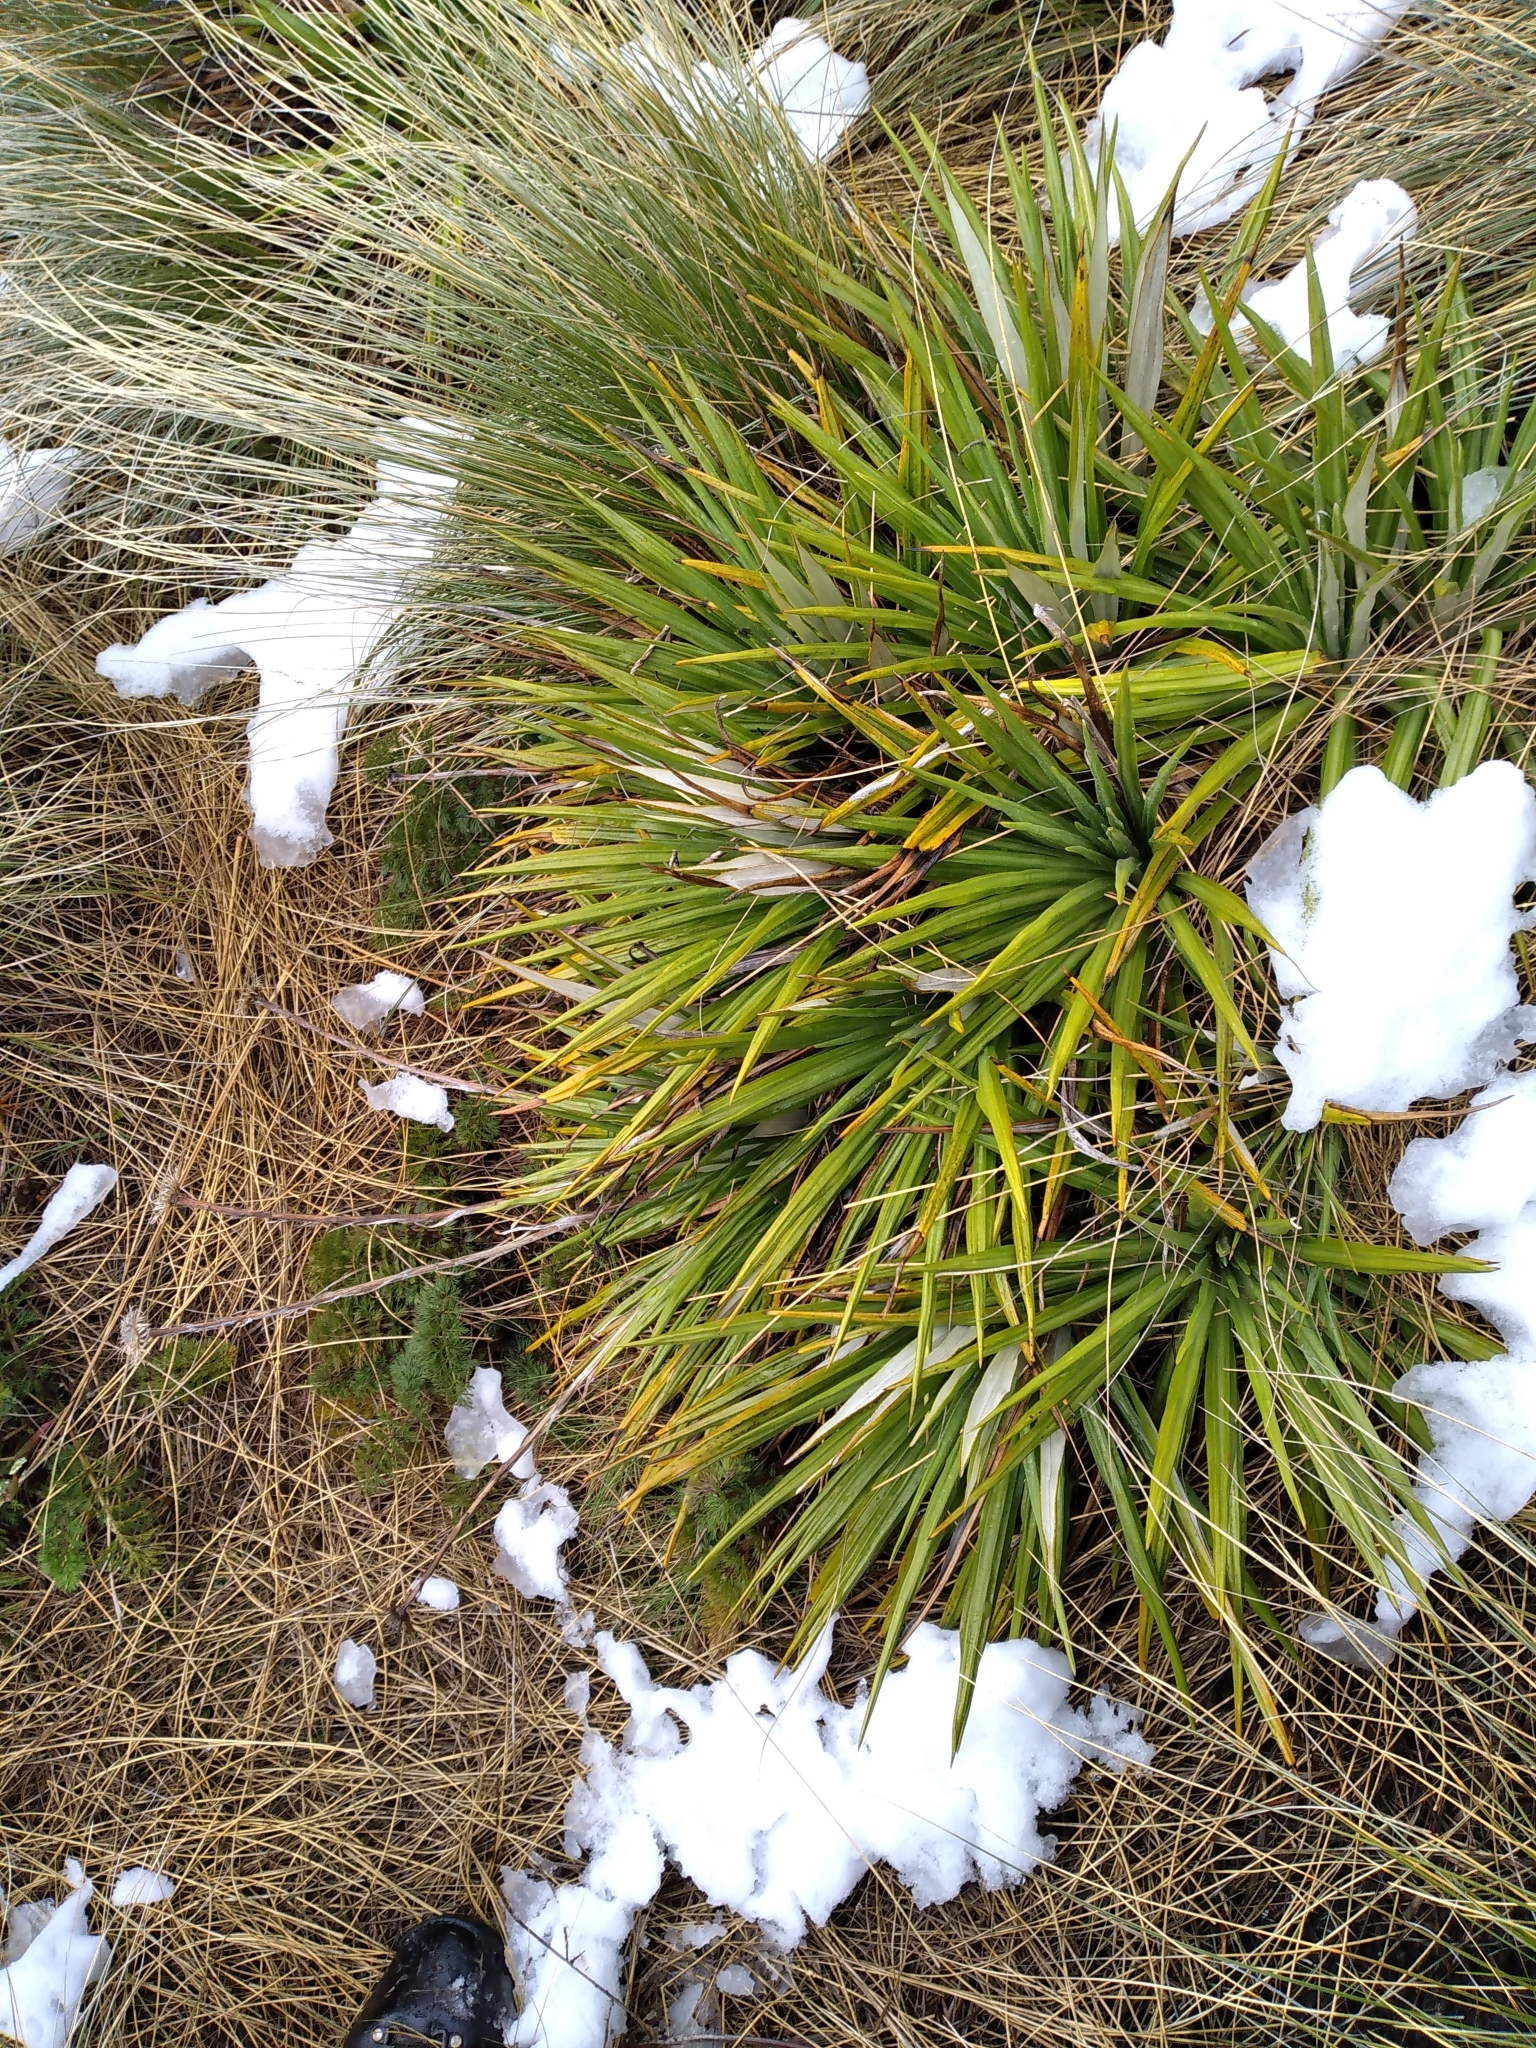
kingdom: Plantae
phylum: Tracheophyta
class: Magnoliopsida
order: Asterales
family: Asteraceae
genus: Celmisia
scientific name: Celmisia petriei
